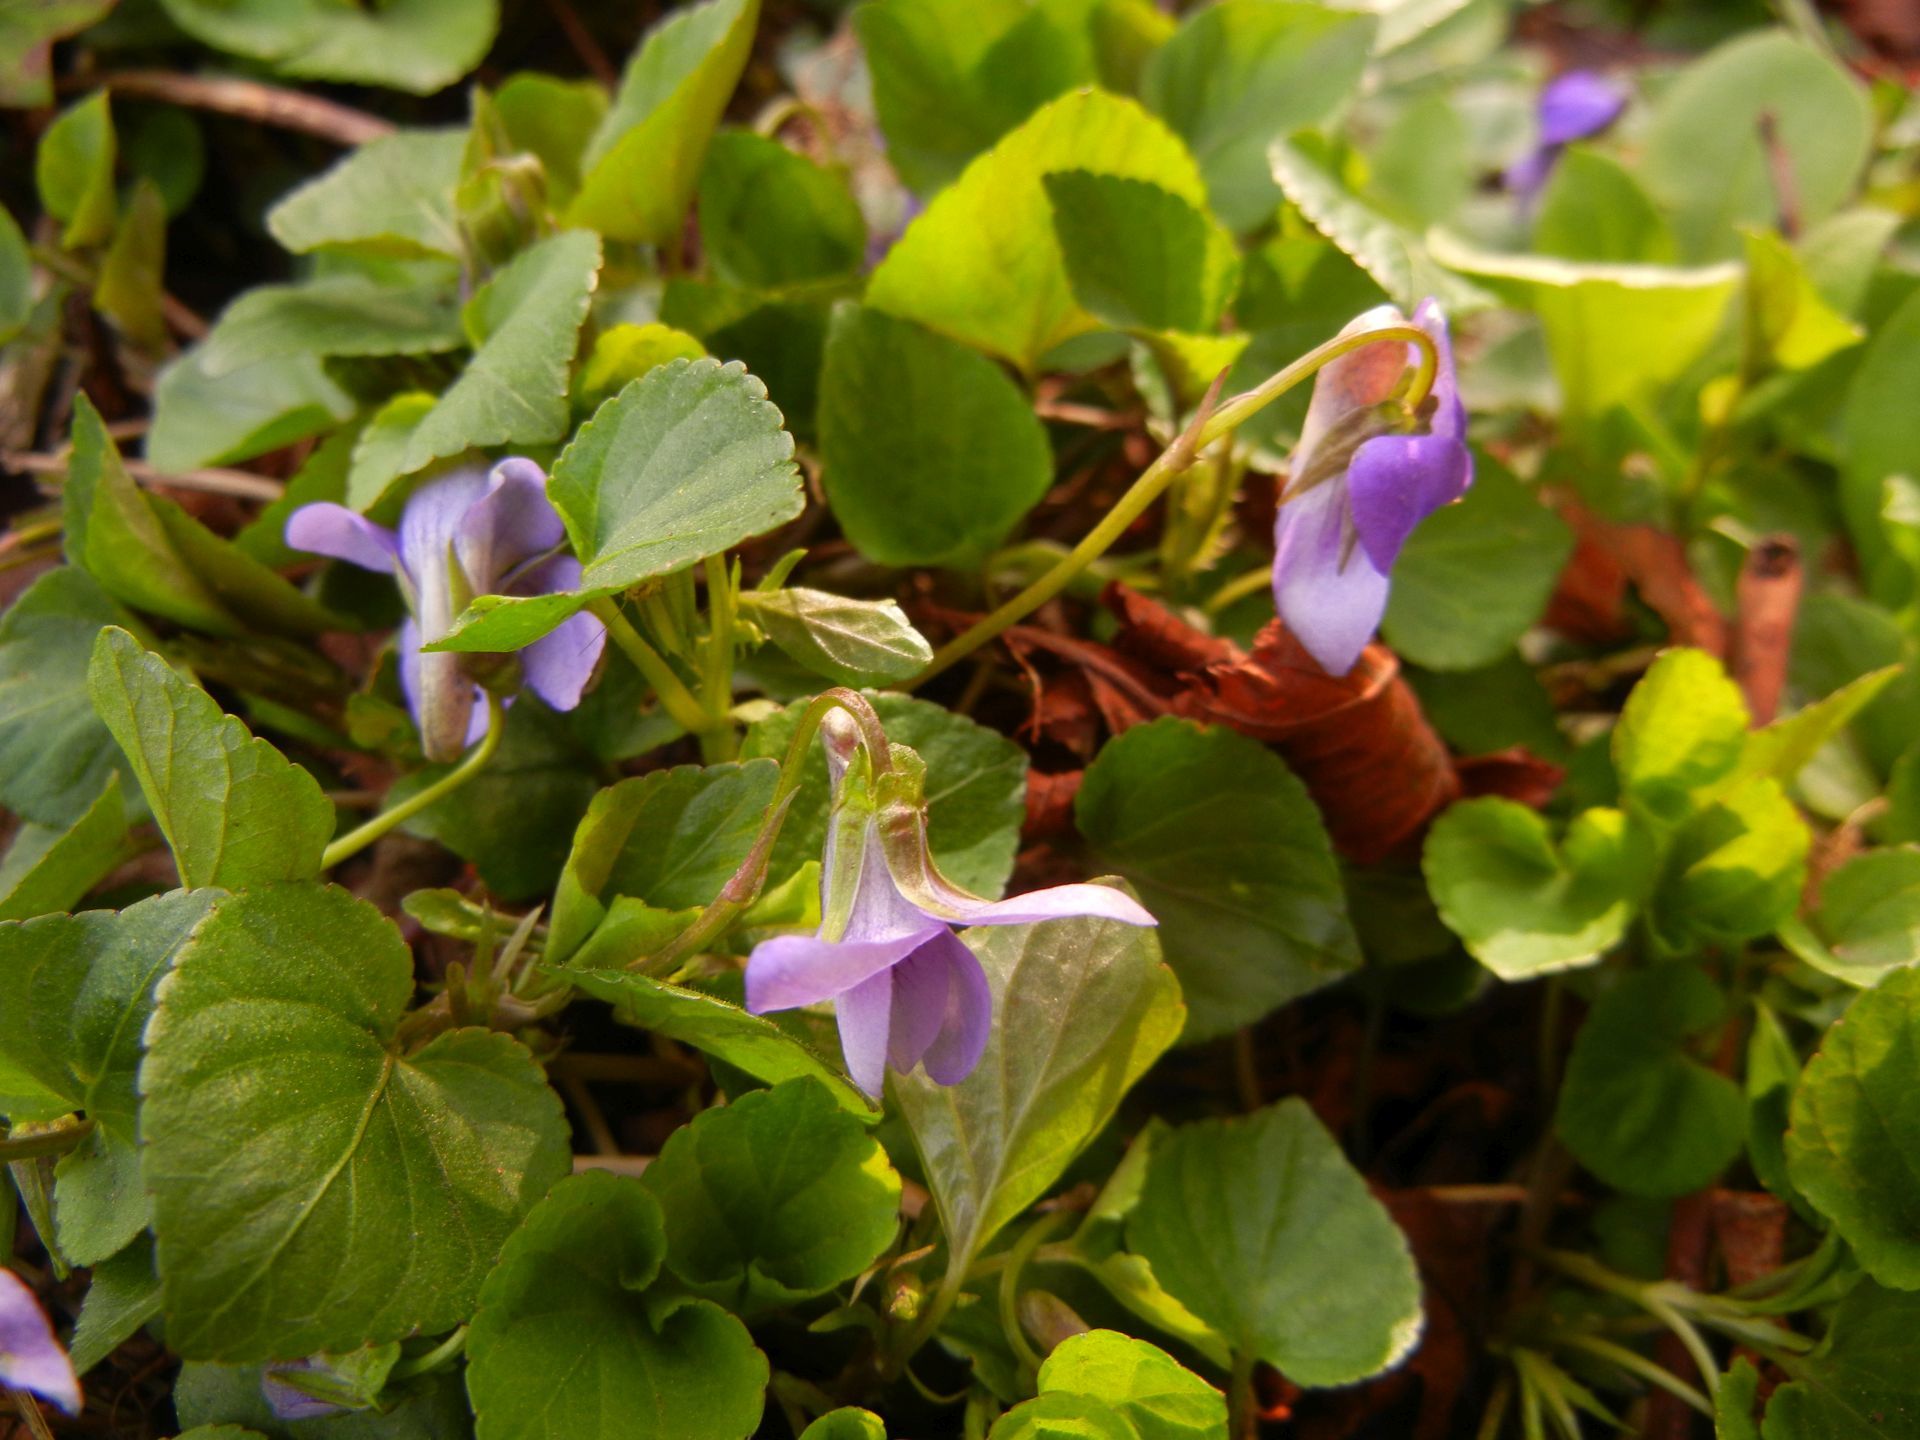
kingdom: Plantae
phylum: Tracheophyta
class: Magnoliopsida
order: Malpighiales
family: Violaceae
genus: Viola
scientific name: Viola riviniana
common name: Common dog-violet
